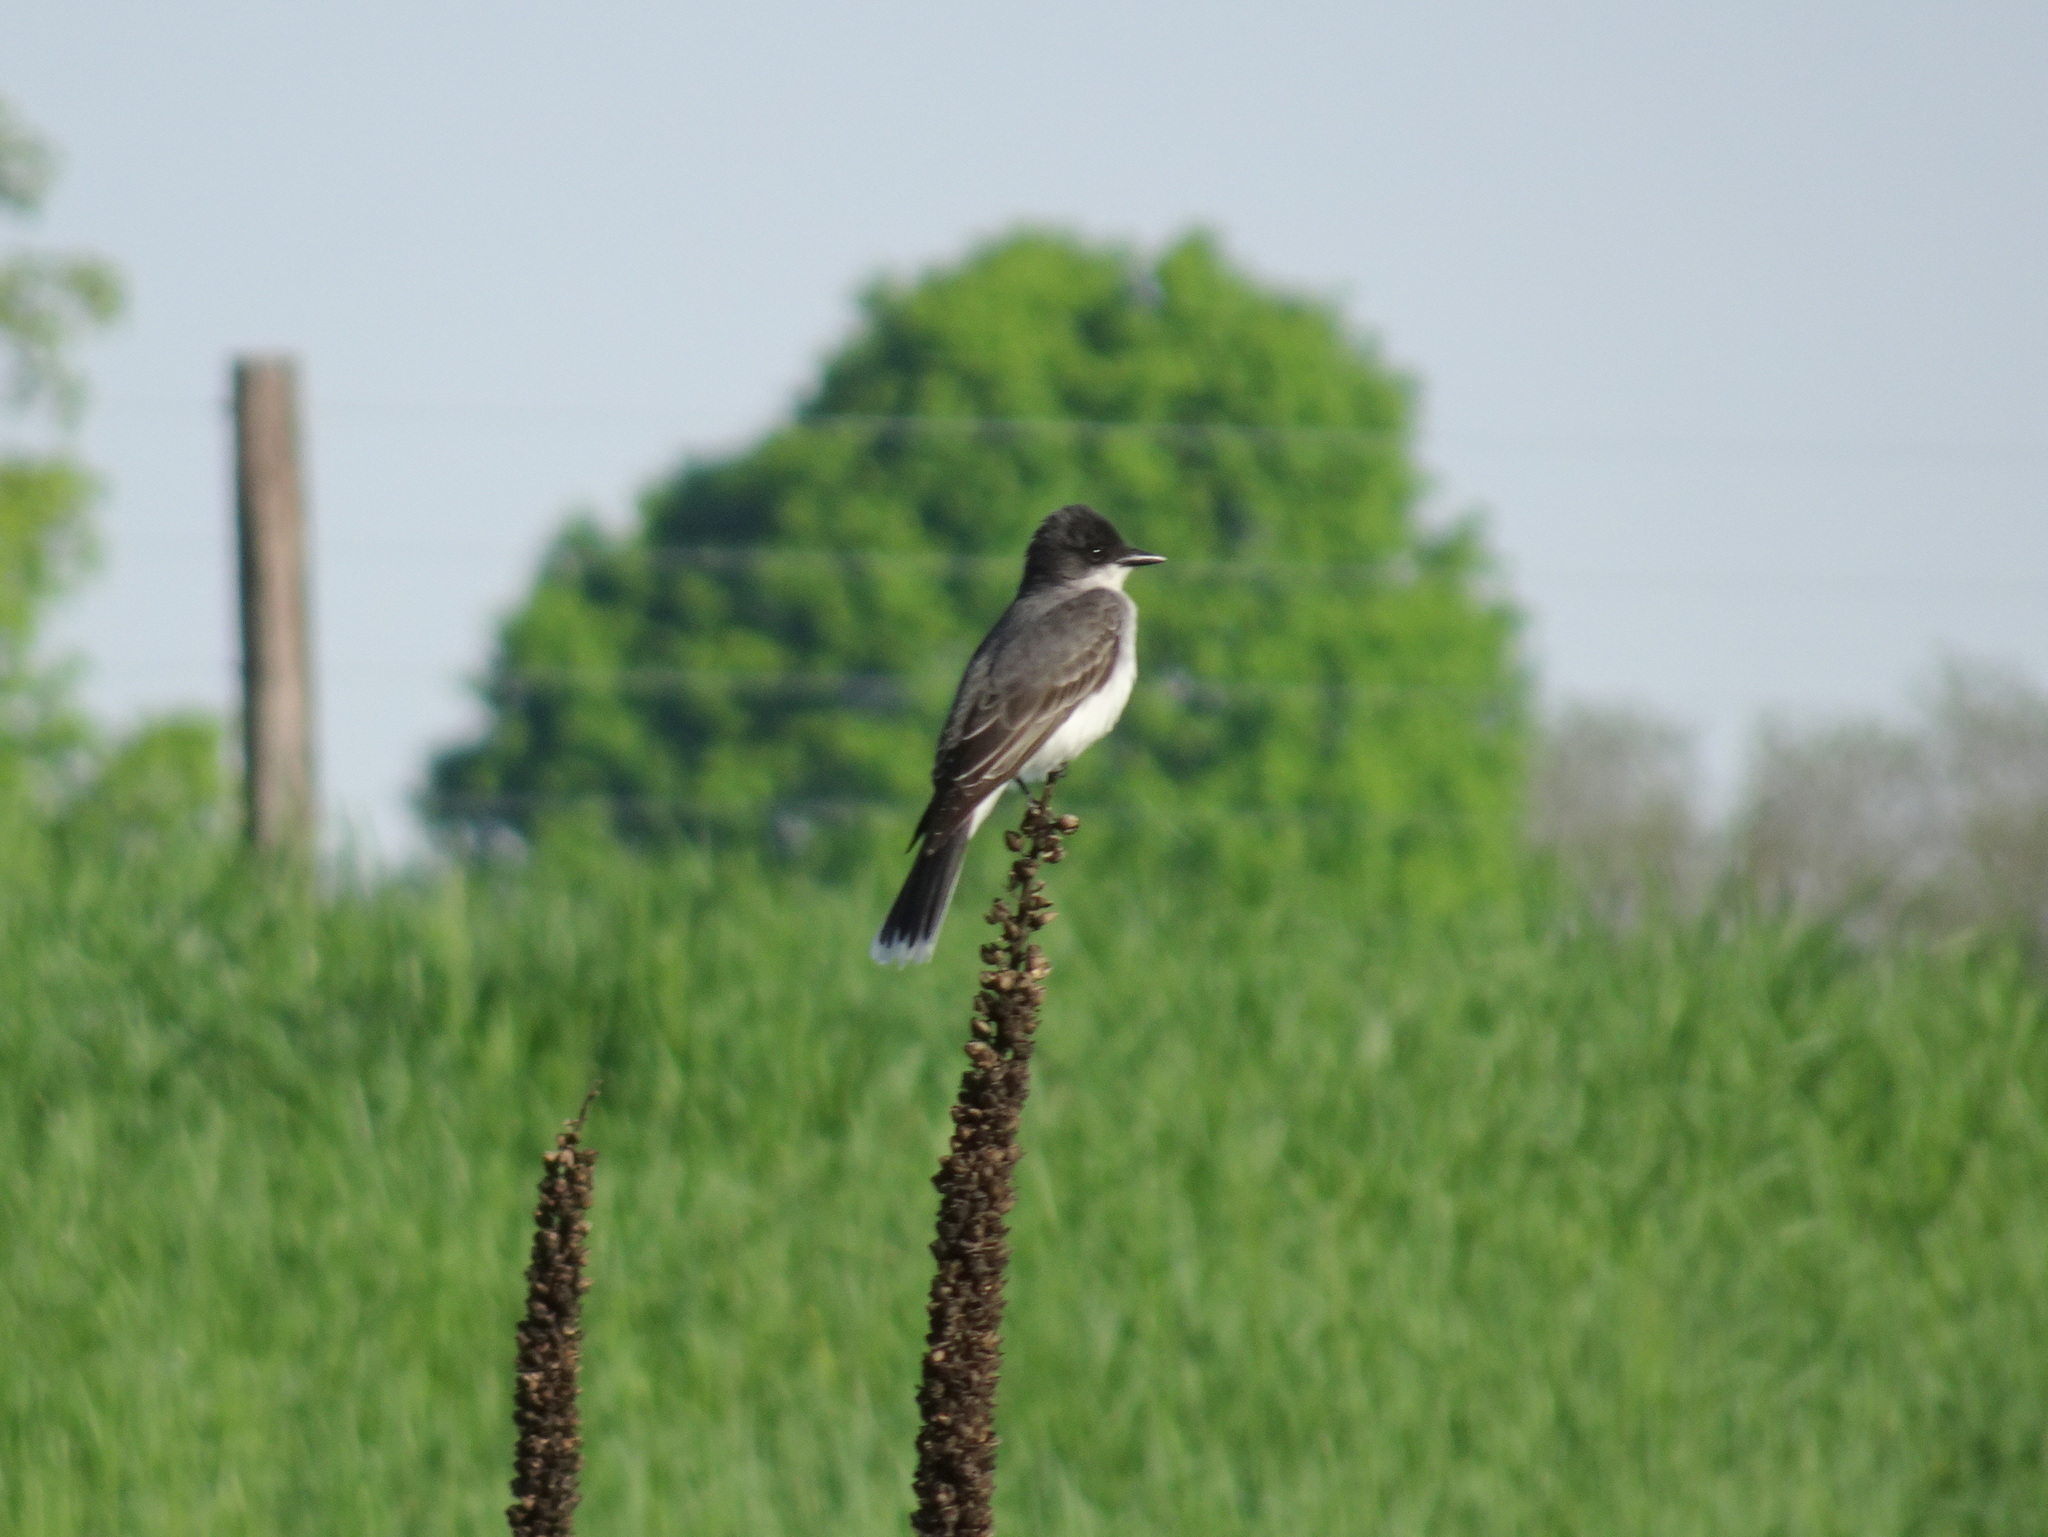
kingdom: Animalia
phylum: Chordata
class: Aves
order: Passeriformes
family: Tyrannidae
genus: Tyrannus
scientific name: Tyrannus tyrannus
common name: Eastern kingbird
